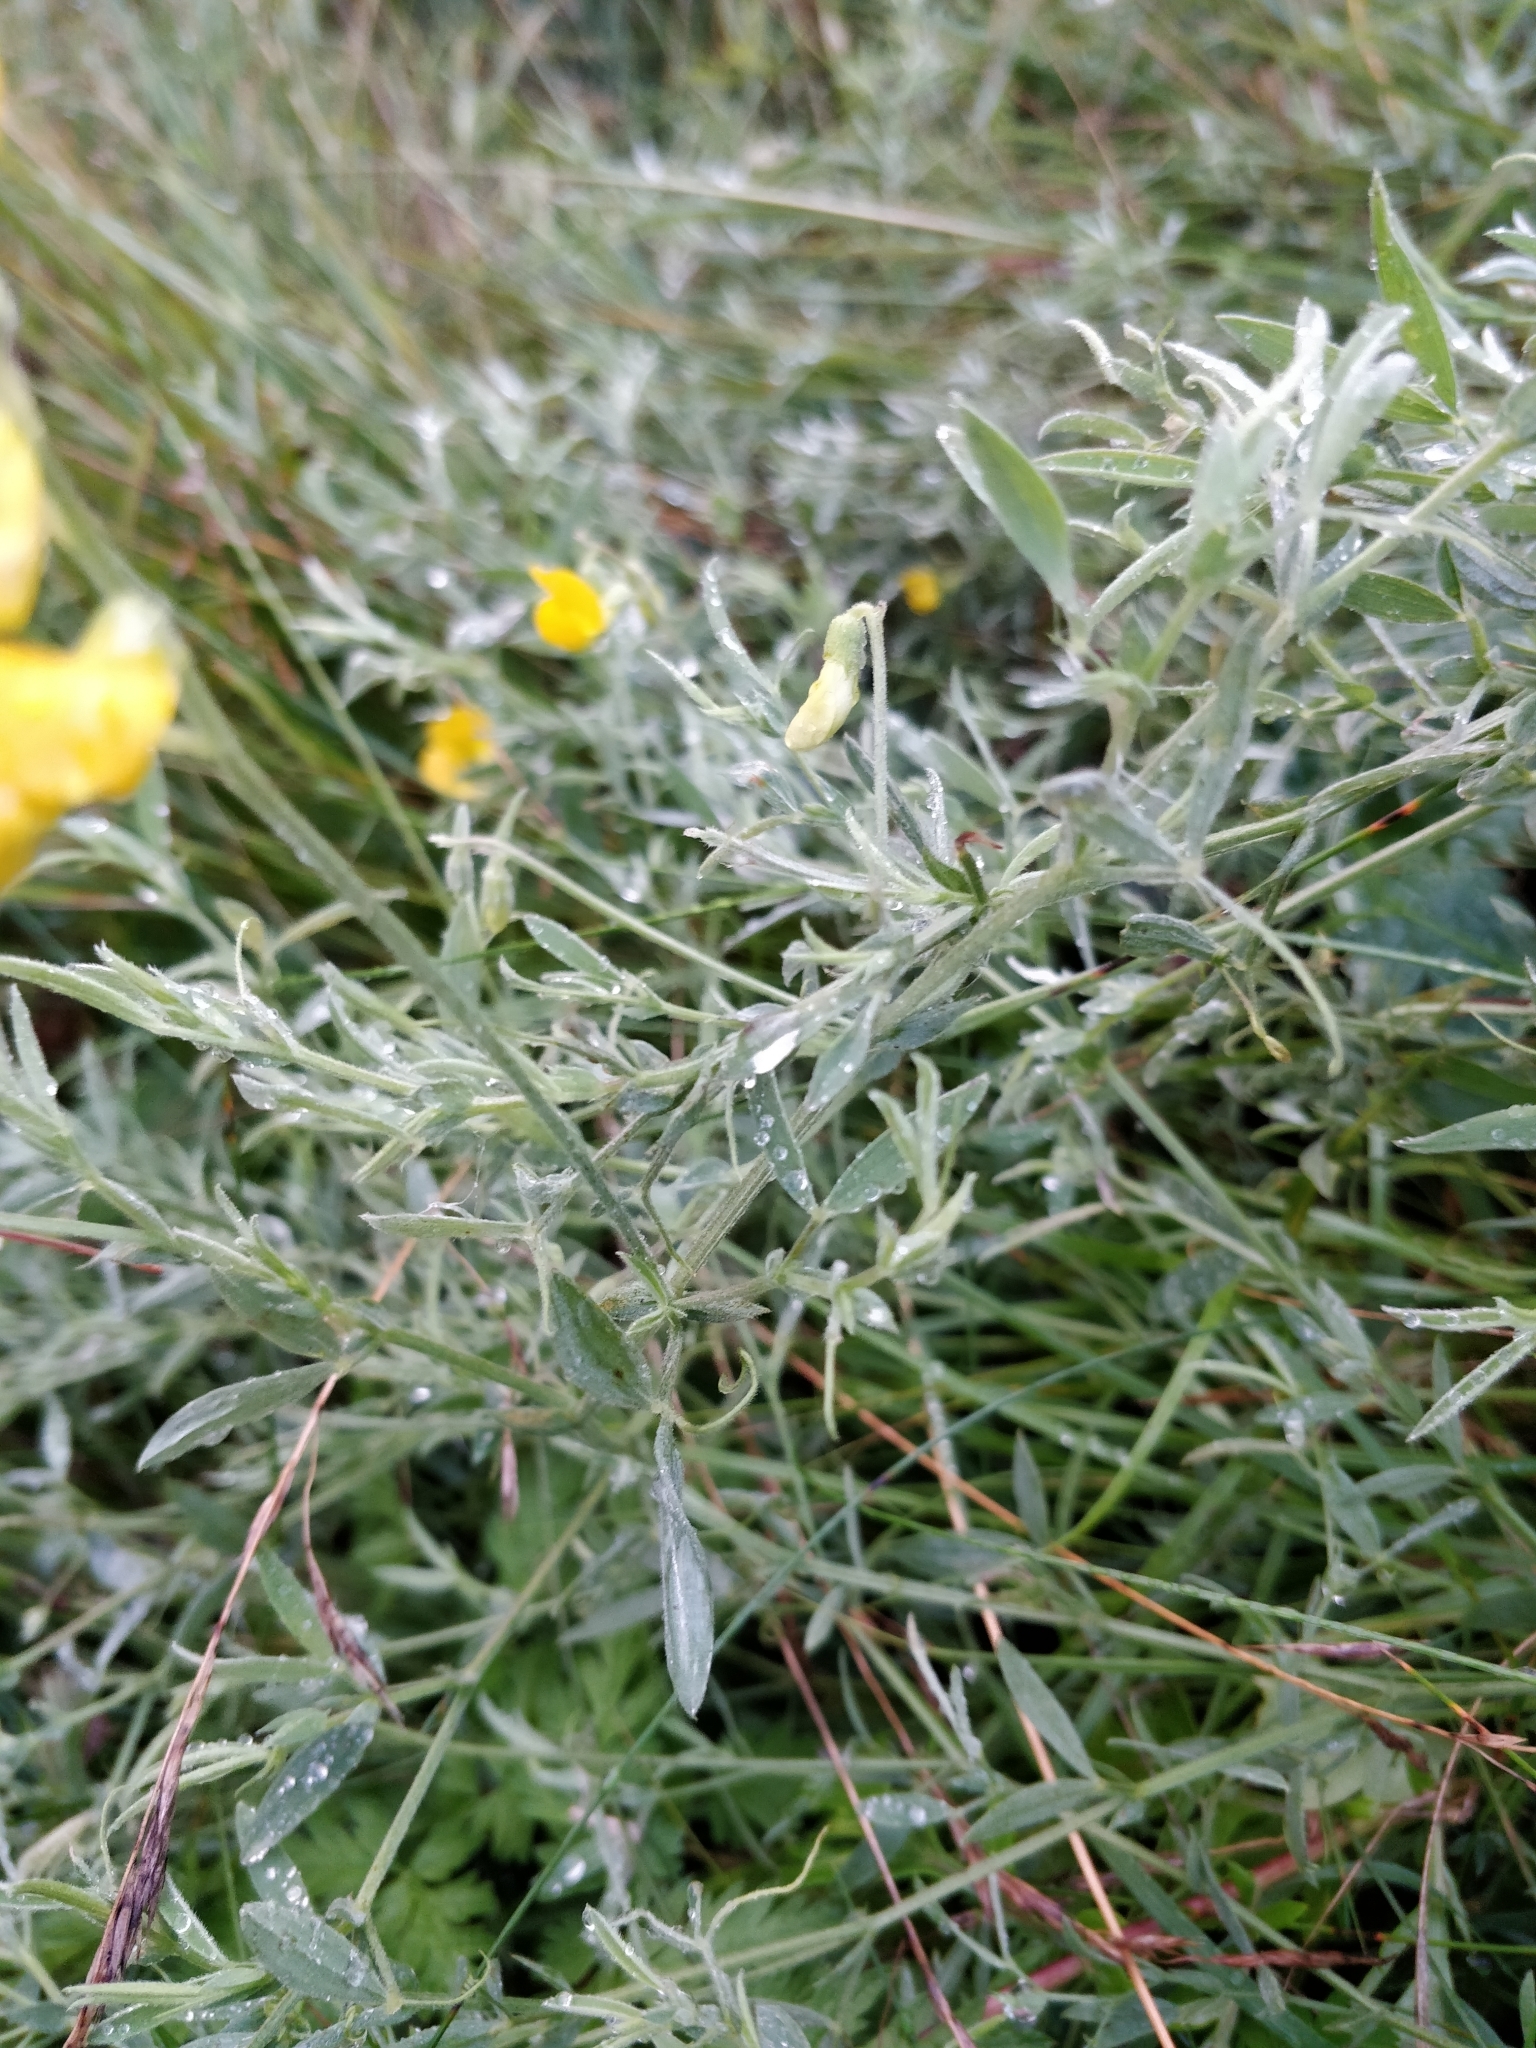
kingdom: Plantae
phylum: Tracheophyta
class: Magnoliopsida
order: Fabales
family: Fabaceae
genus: Lathyrus
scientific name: Lathyrus pratensis
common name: Meadow vetchling
